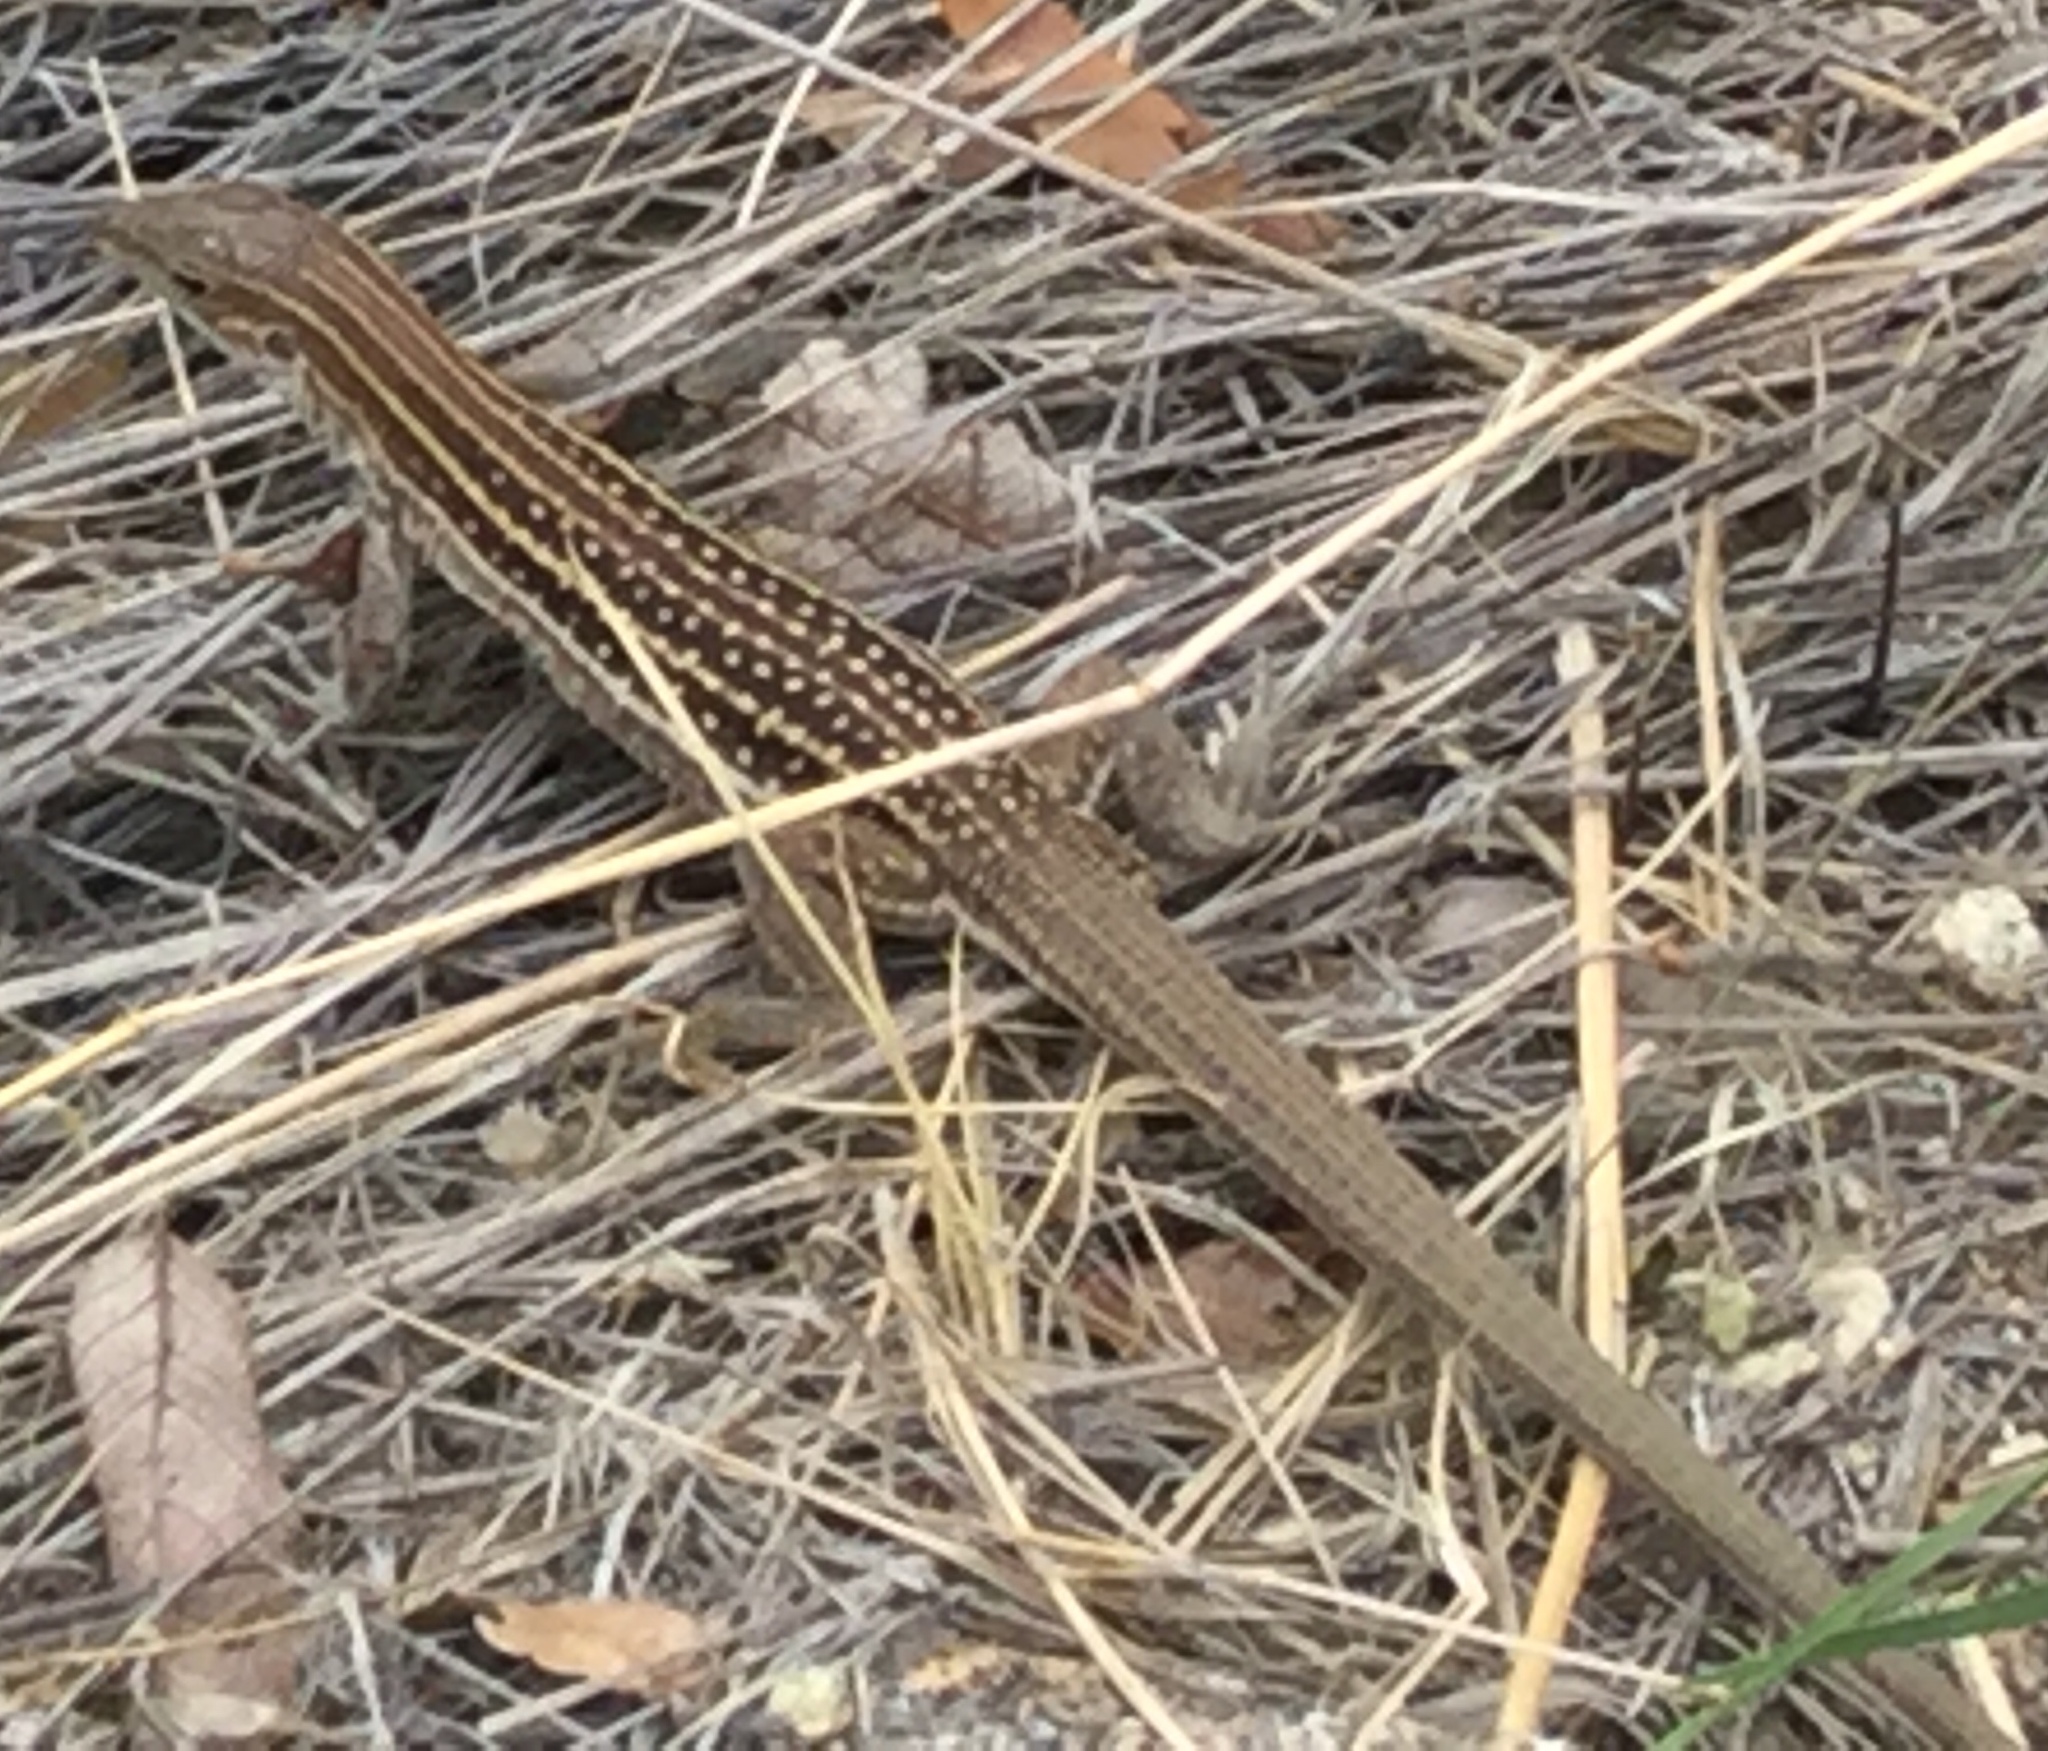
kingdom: Animalia
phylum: Chordata
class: Squamata
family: Teiidae
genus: Aspidoscelis
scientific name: Aspidoscelis sonorae
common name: Sonoran spotted whiptail
